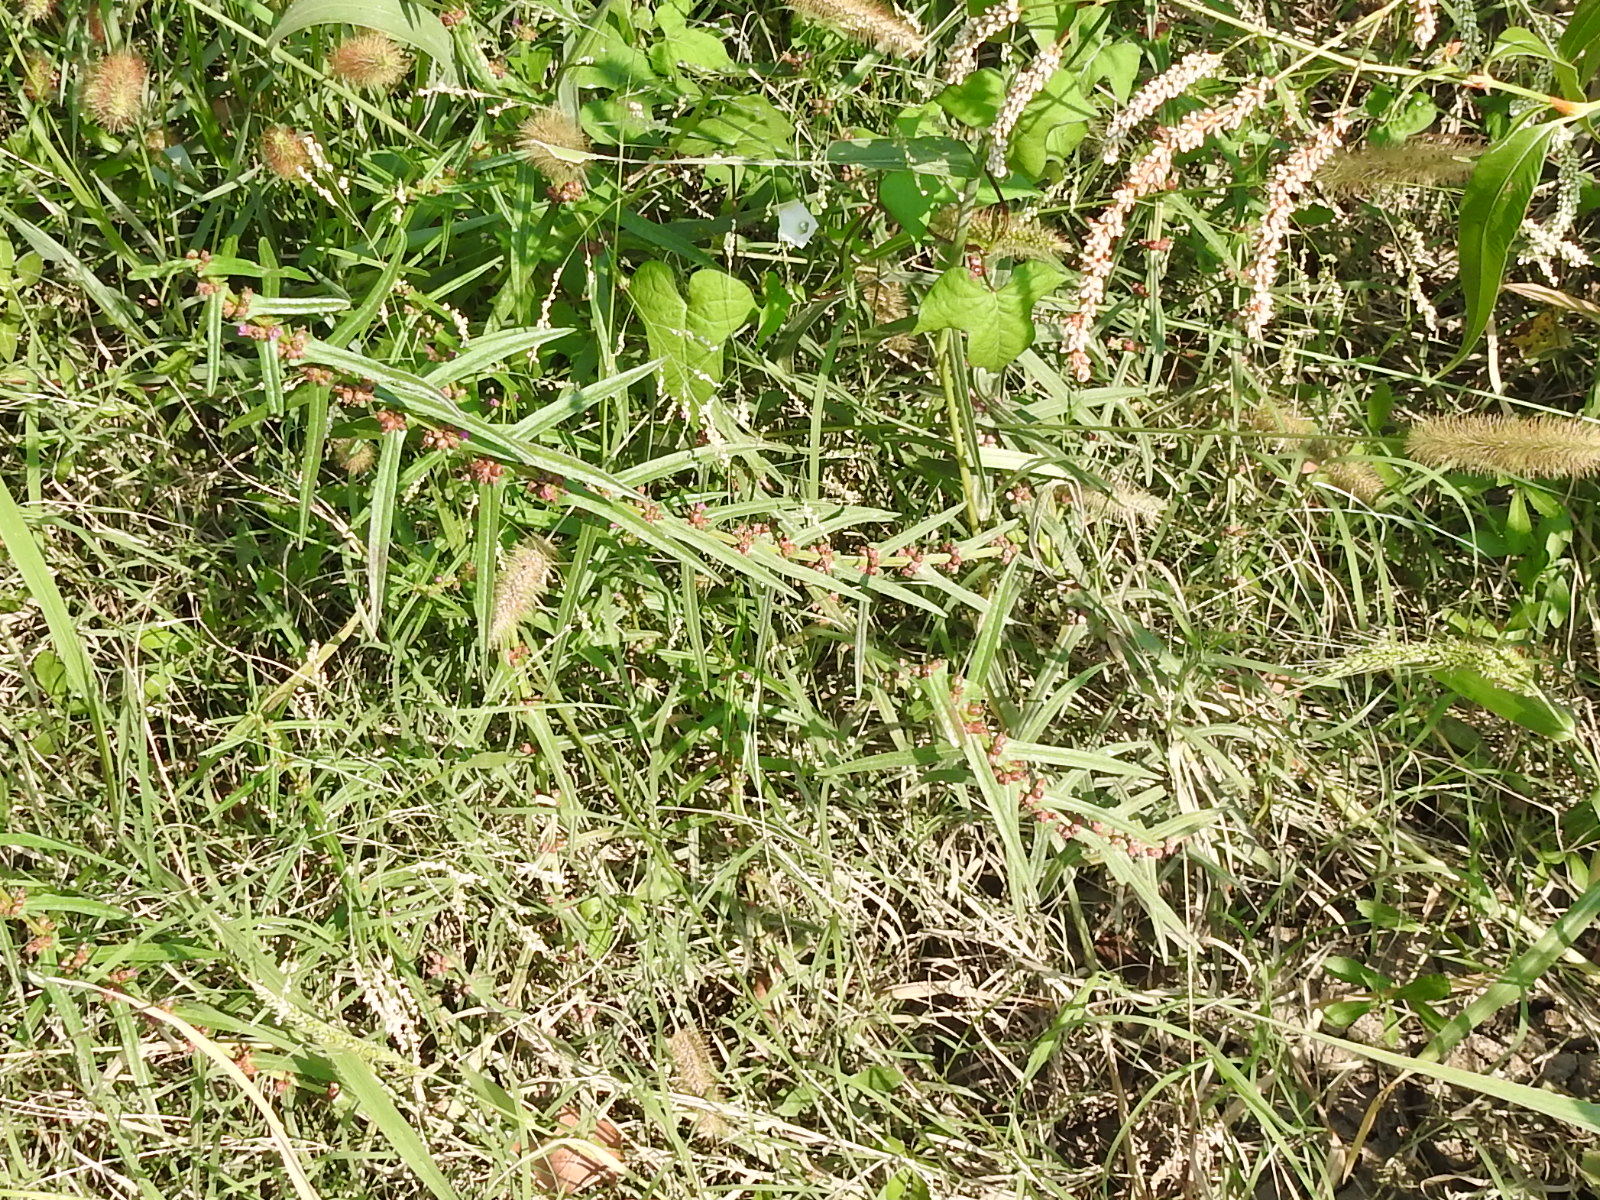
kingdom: Plantae
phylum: Tracheophyta
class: Magnoliopsida
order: Myrtales
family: Lythraceae
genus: Ammannia
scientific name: Ammannia coccinea
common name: Valley redstem
